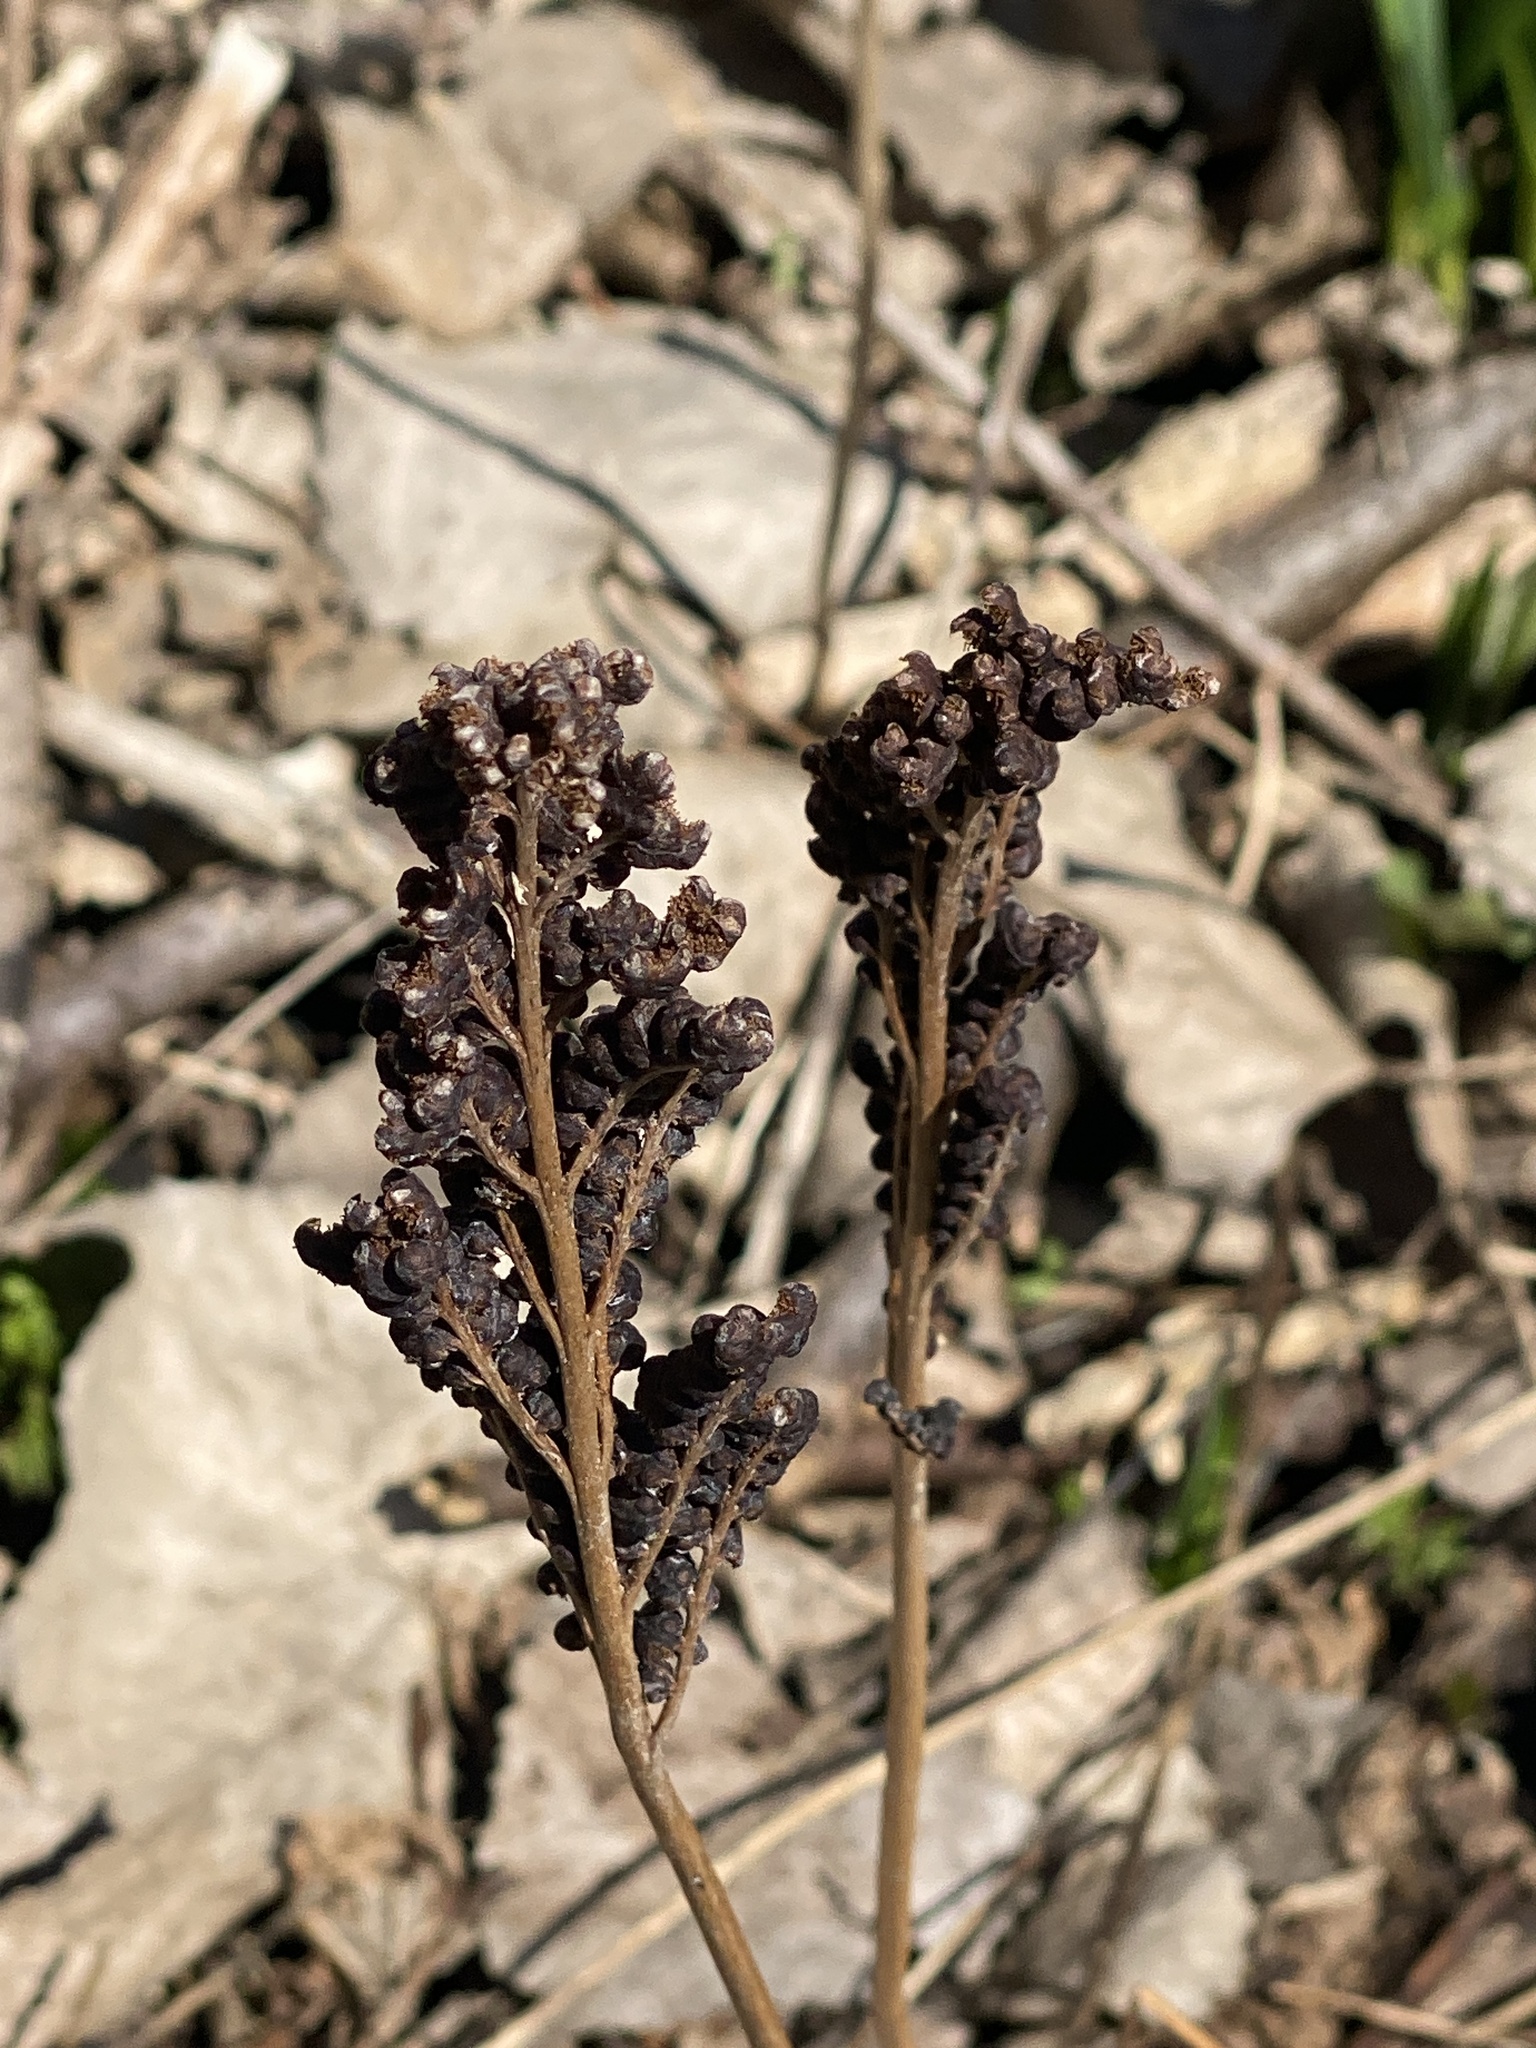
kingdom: Plantae
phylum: Tracheophyta
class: Polypodiopsida
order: Polypodiales
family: Onocleaceae
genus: Onoclea
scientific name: Onoclea sensibilis
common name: Sensitive fern
